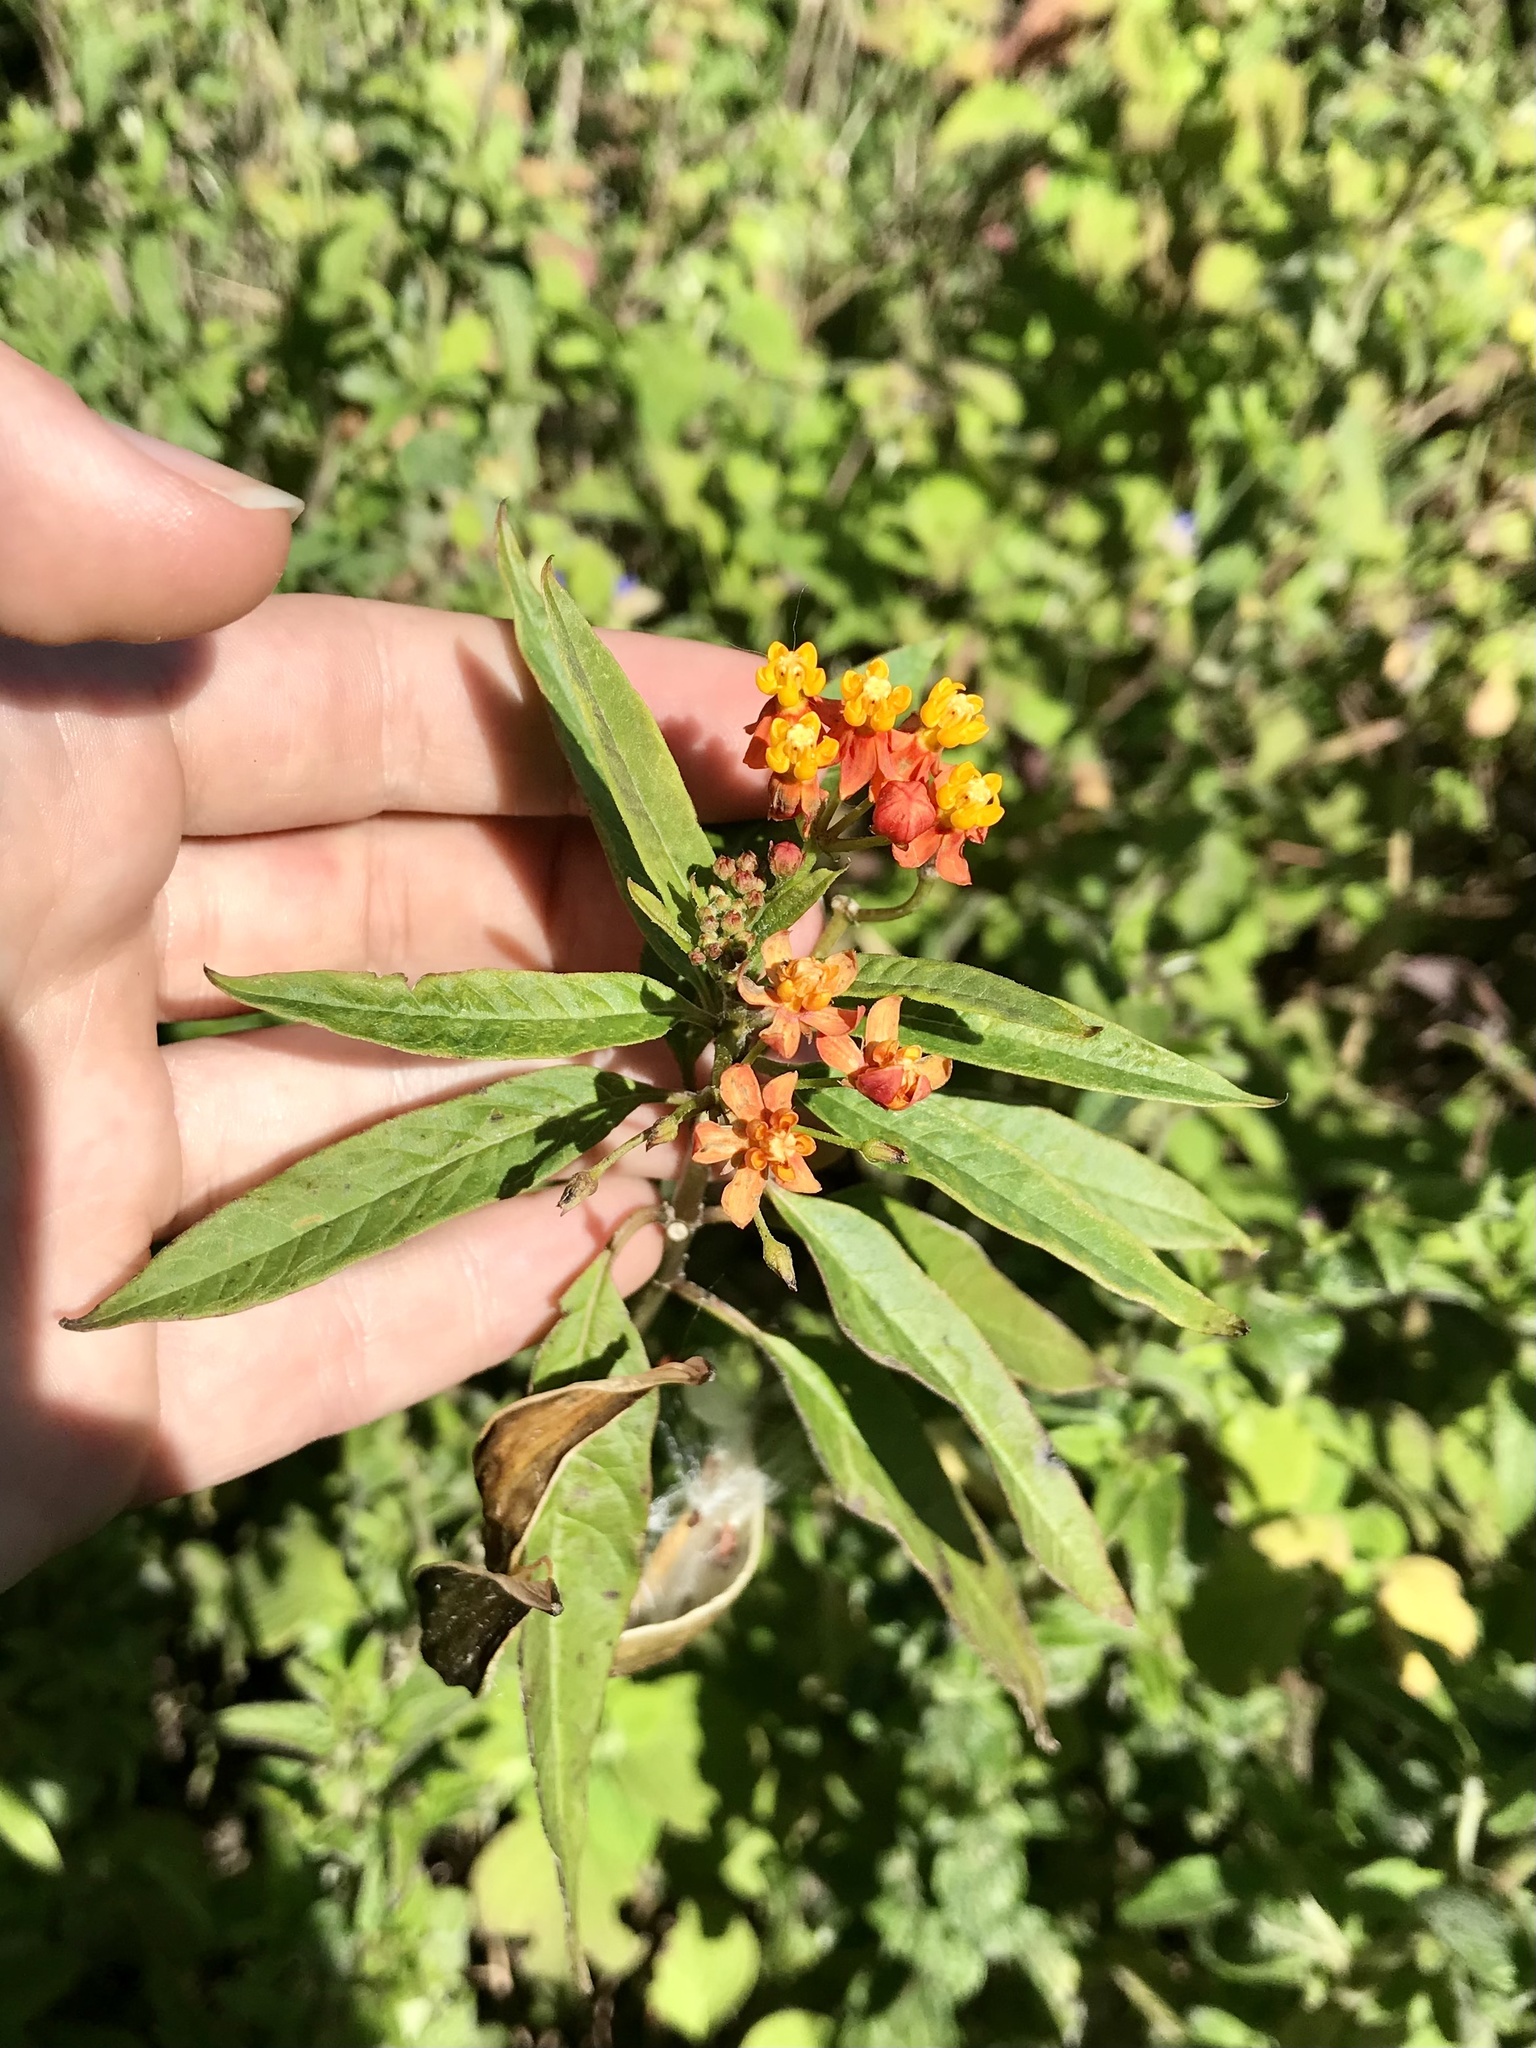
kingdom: Plantae
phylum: Tracheophyta
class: Magnoliopsida
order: Gentianales
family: Apocynaceae
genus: Asclepias
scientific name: Asclepias curassavica
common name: Bloodflower
